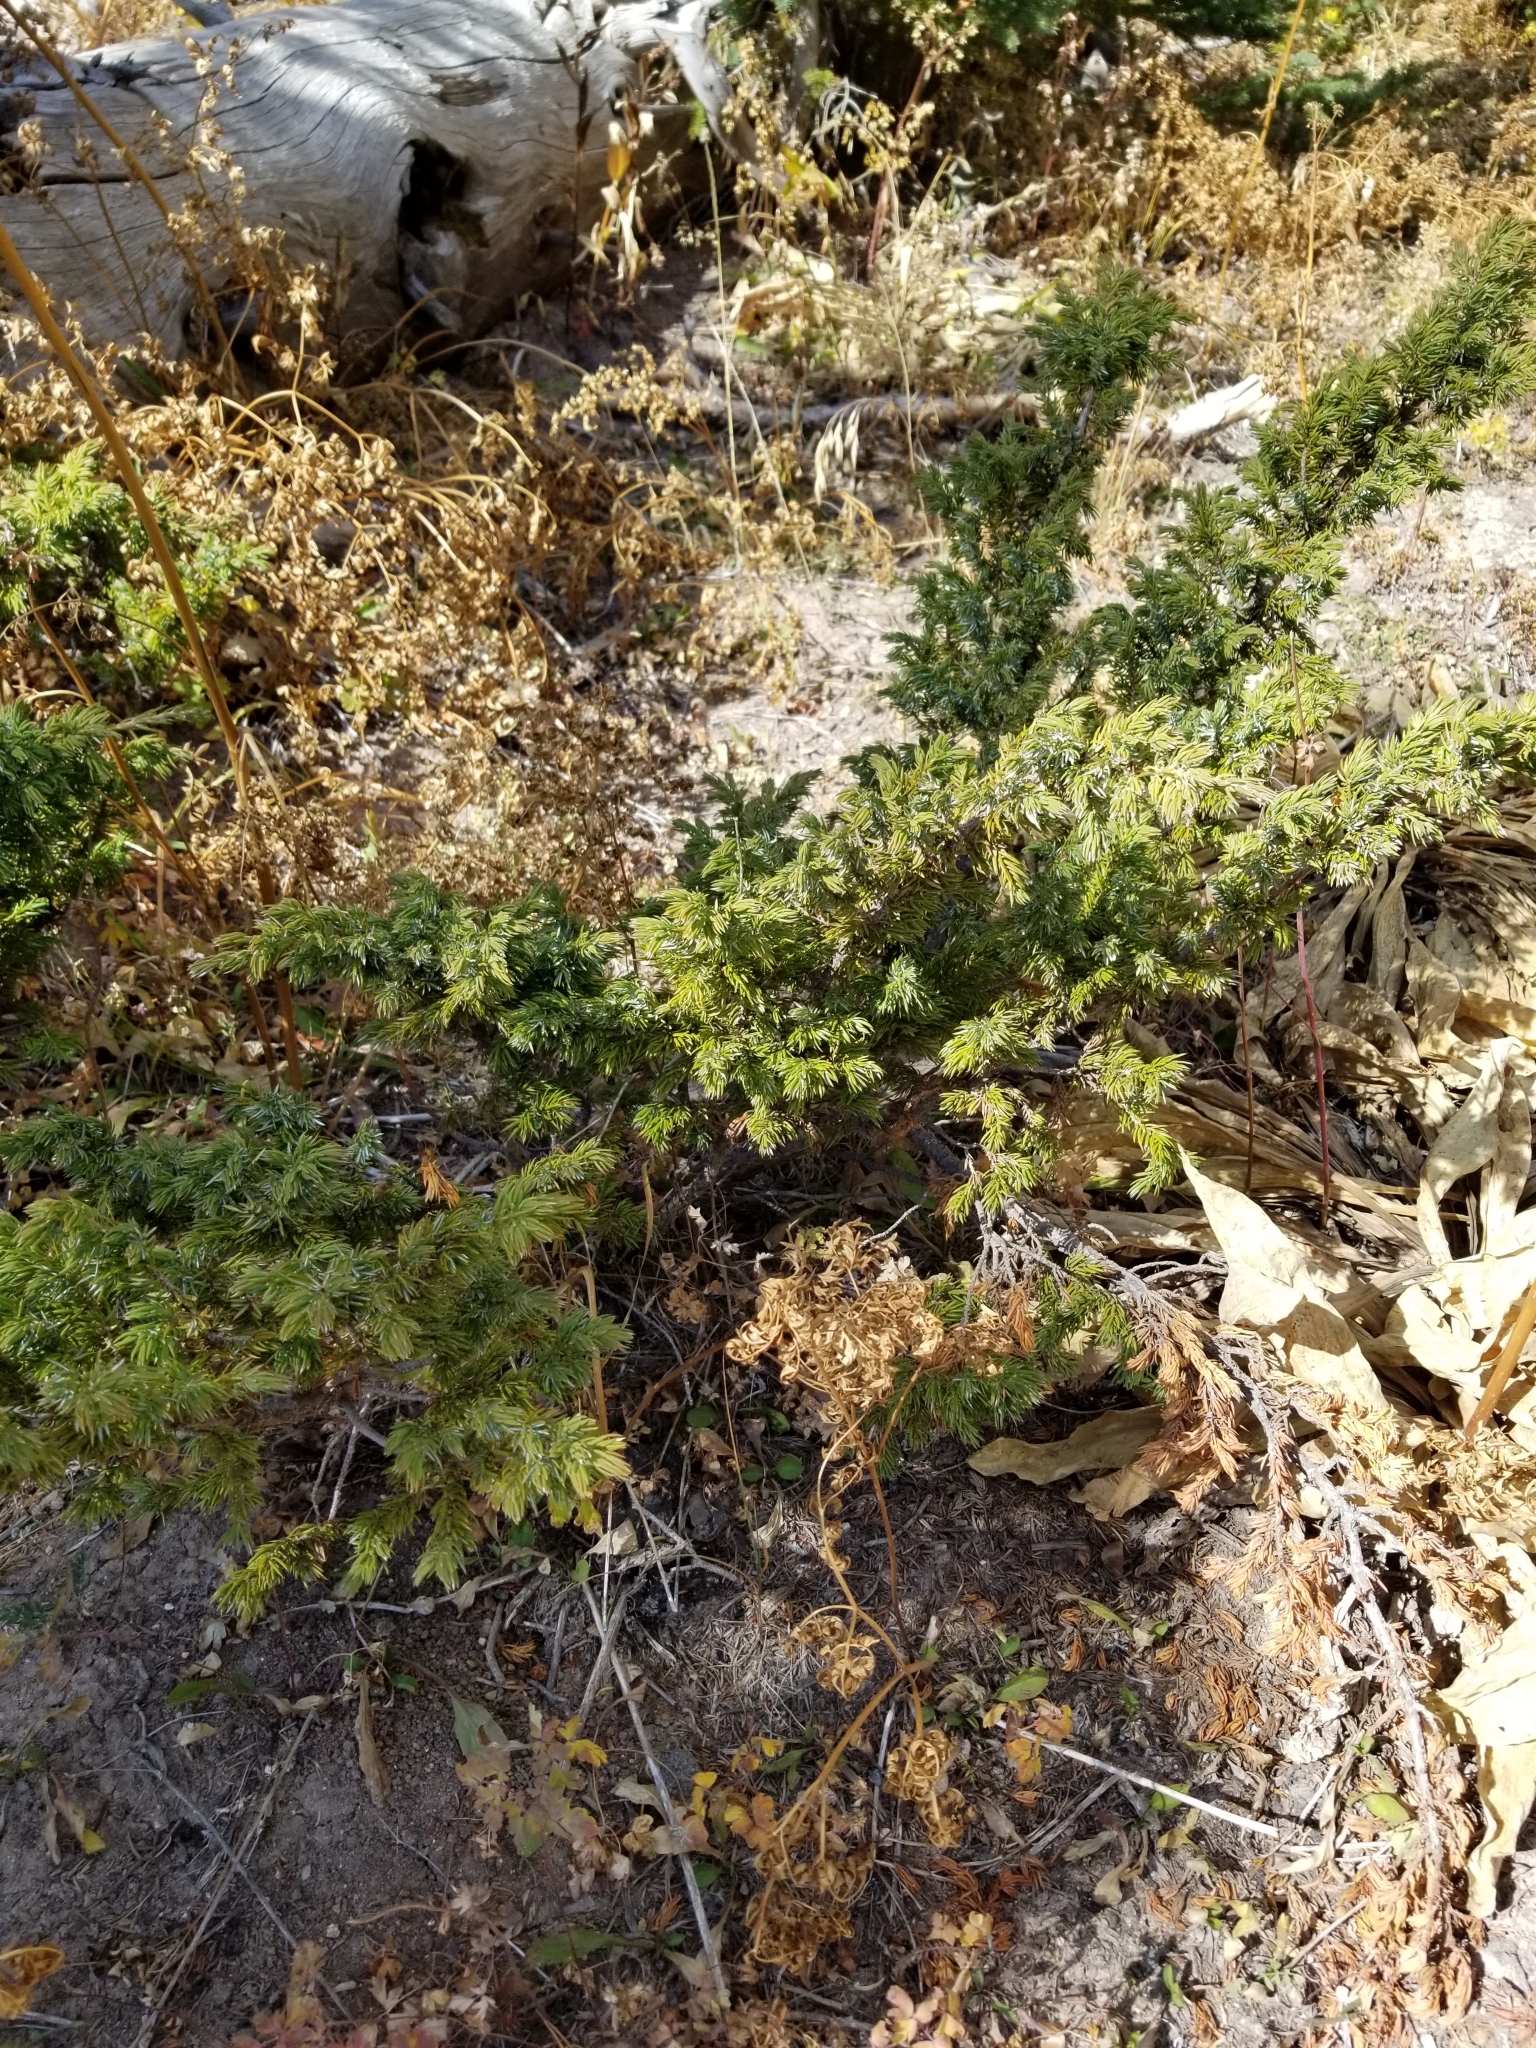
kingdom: Plantae
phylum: Tracheophyta
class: Pinopsida
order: Pinales
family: Cupressaceae
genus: Juniperus
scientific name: Juniperus communis
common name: Common juniper
